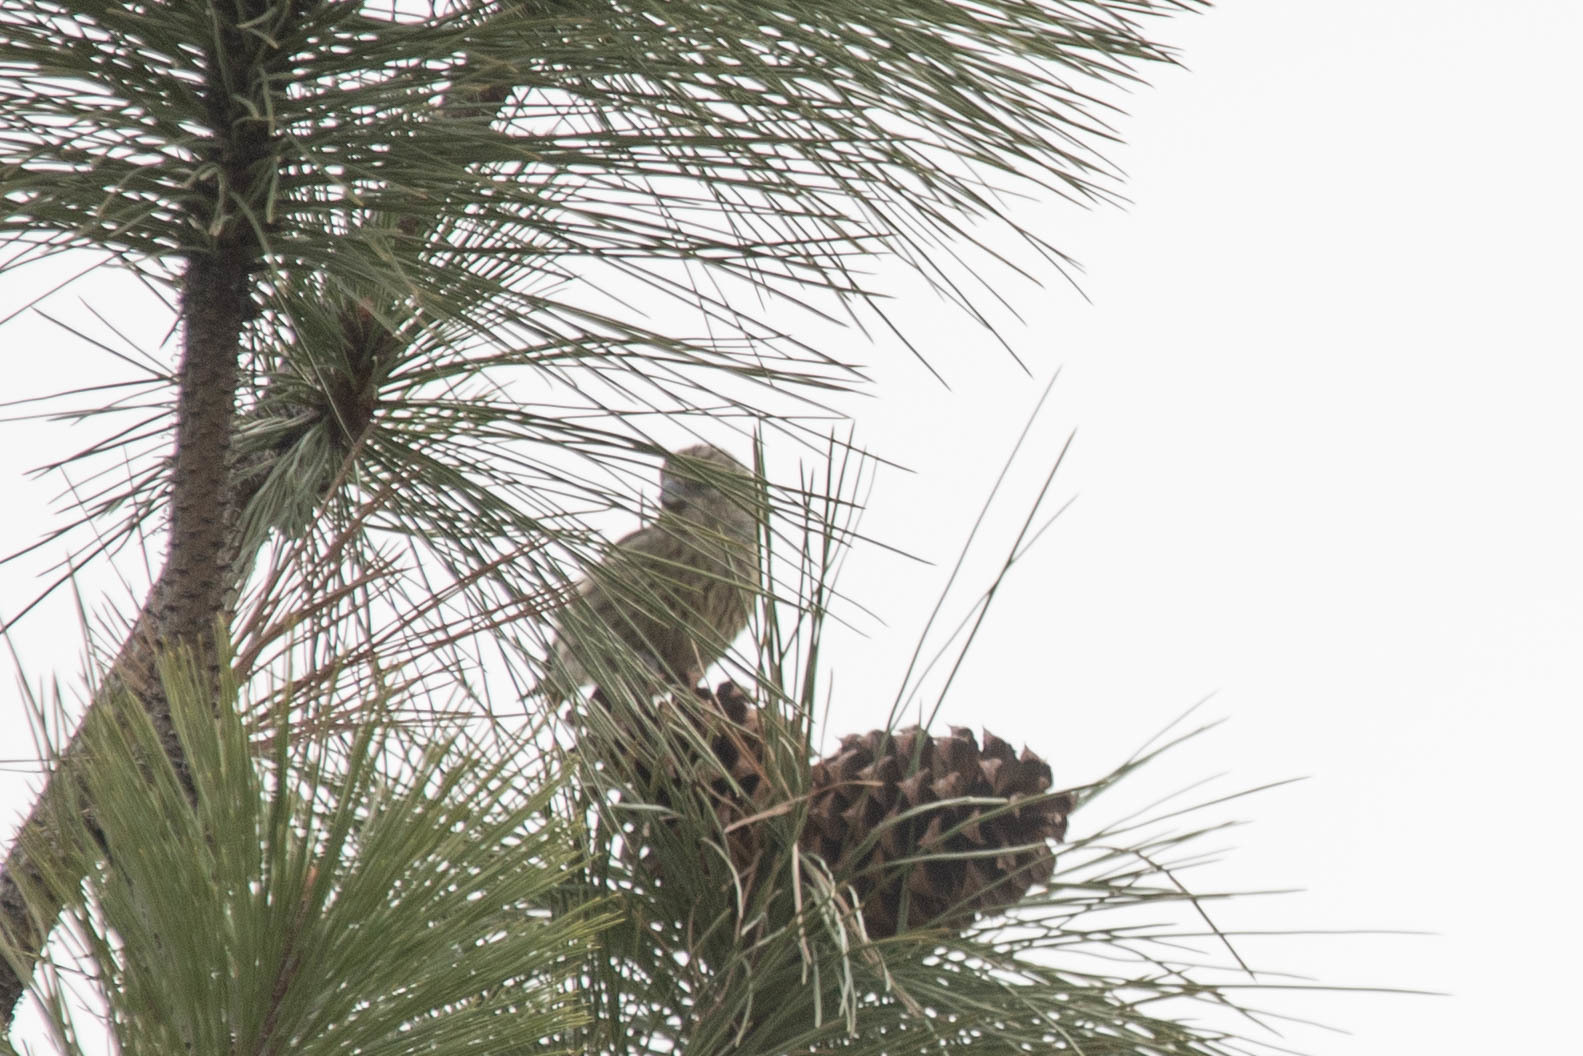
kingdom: Animalia
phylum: Chordata
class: Aves
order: Passeriformes
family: Fringillidae
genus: Loxia
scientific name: Loxia curvirostra
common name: Red crossbill
